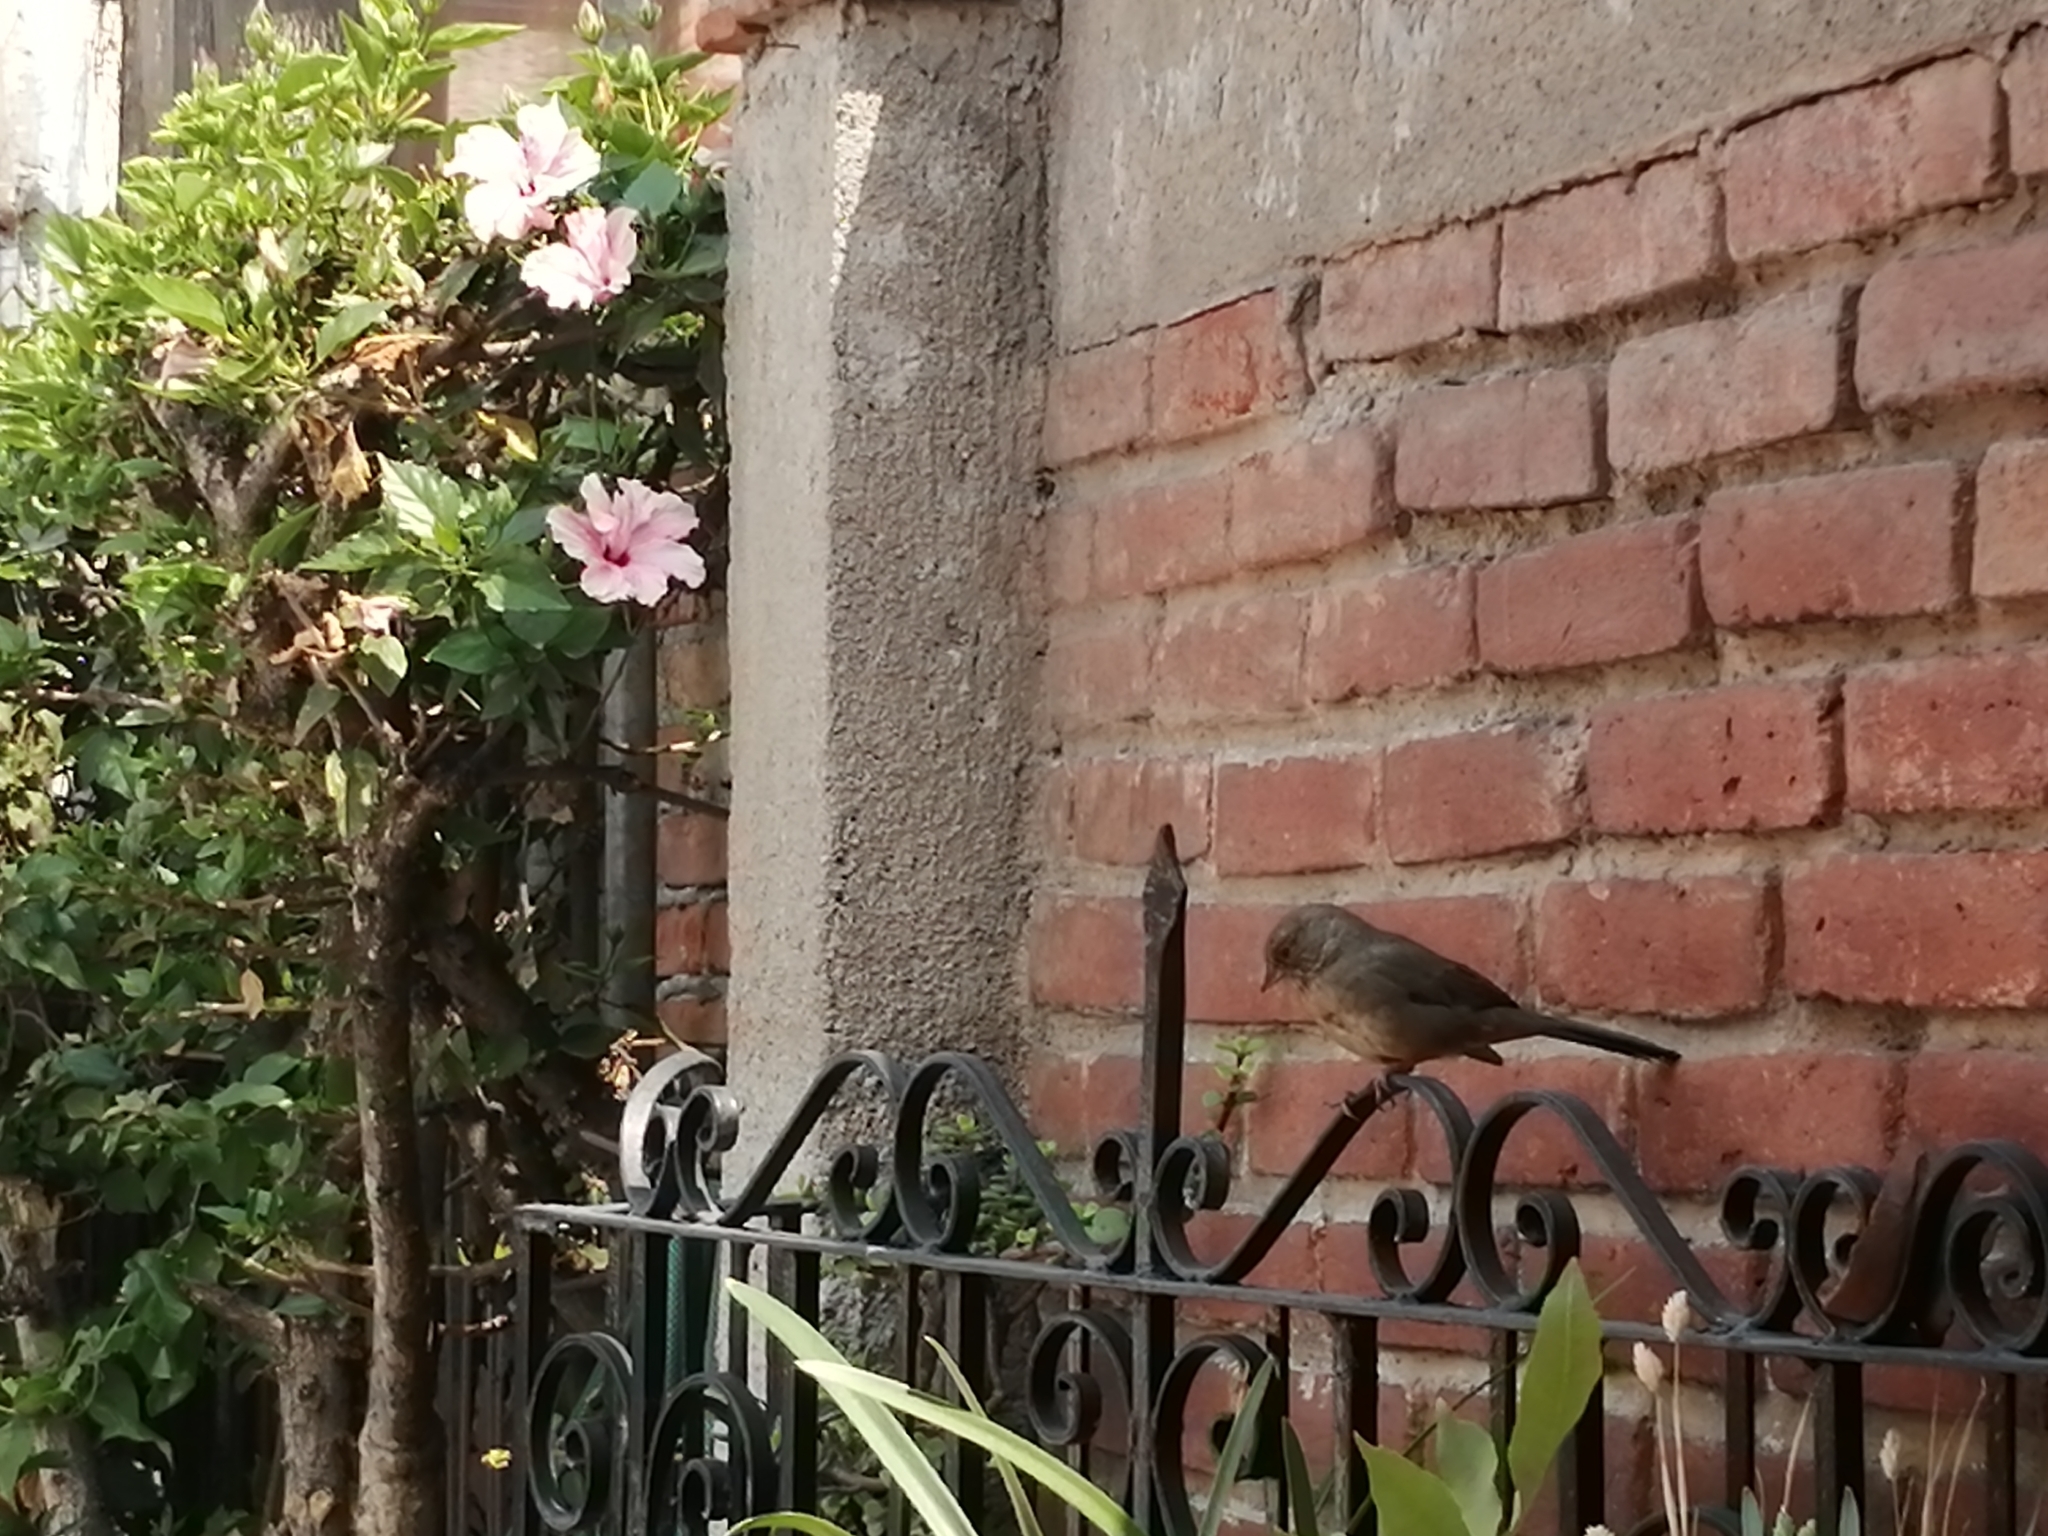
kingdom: Animalia
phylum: Chordata
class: Aves
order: Passeriformes
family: Passerellidae
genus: Melozone
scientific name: Melozone fusca
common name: Canyon towhee
